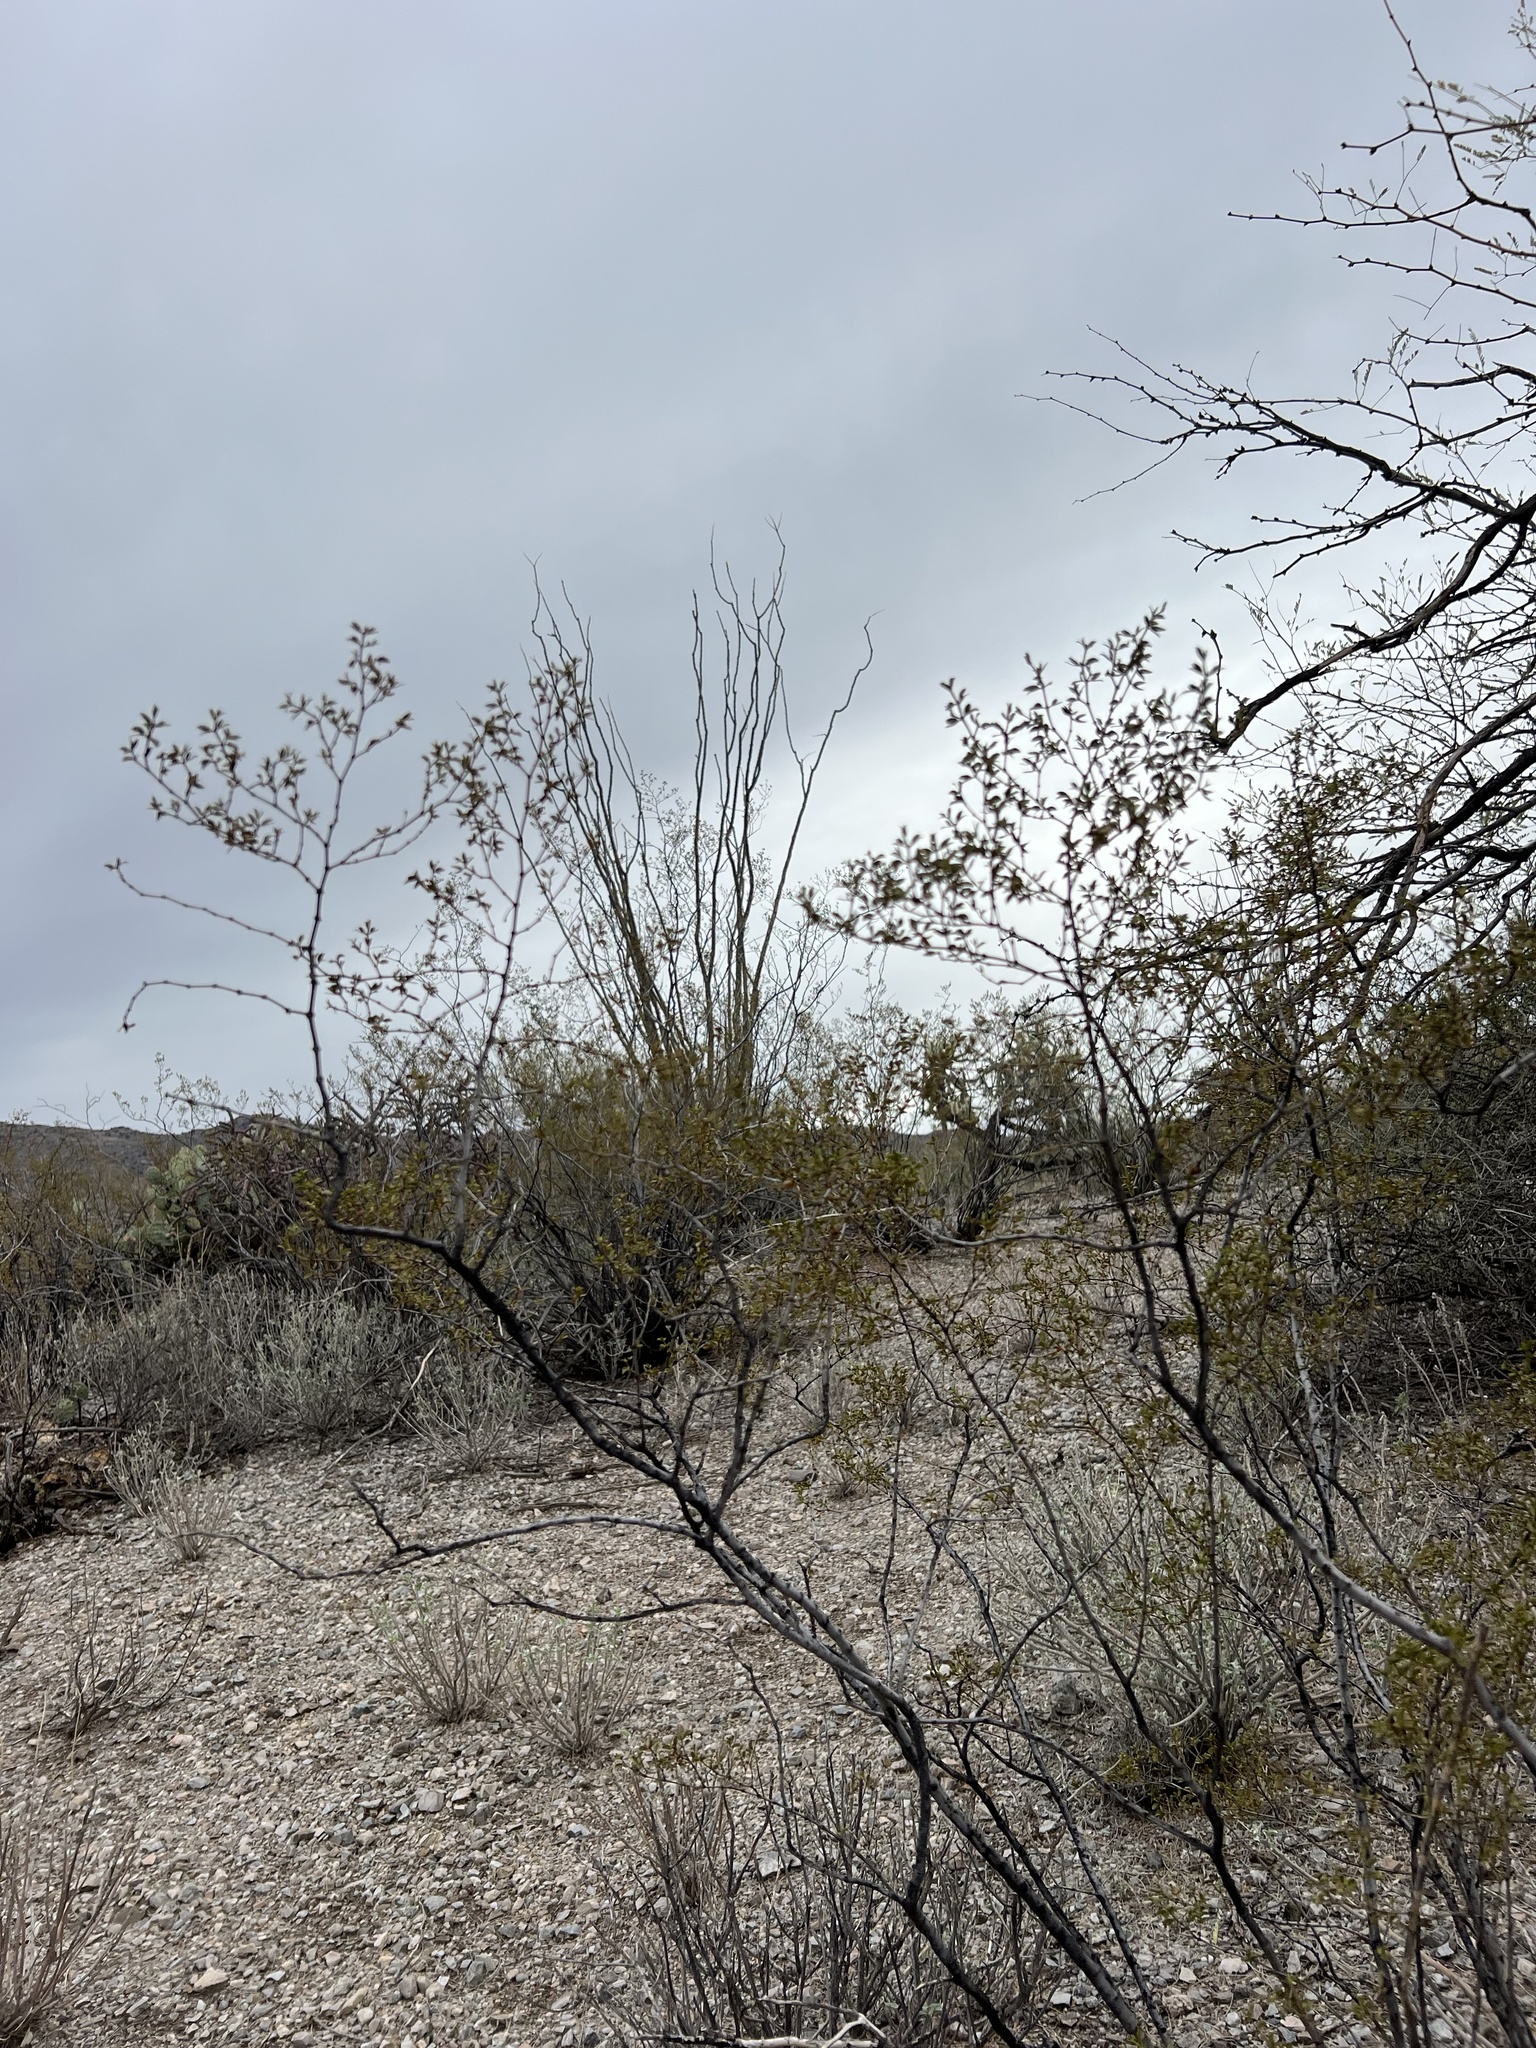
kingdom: Plantae
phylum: Tracheophyta
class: Magnoliopsida
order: Zygophyllales
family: Zygophyllaceae
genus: Larrea
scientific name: Larrea tridentata
